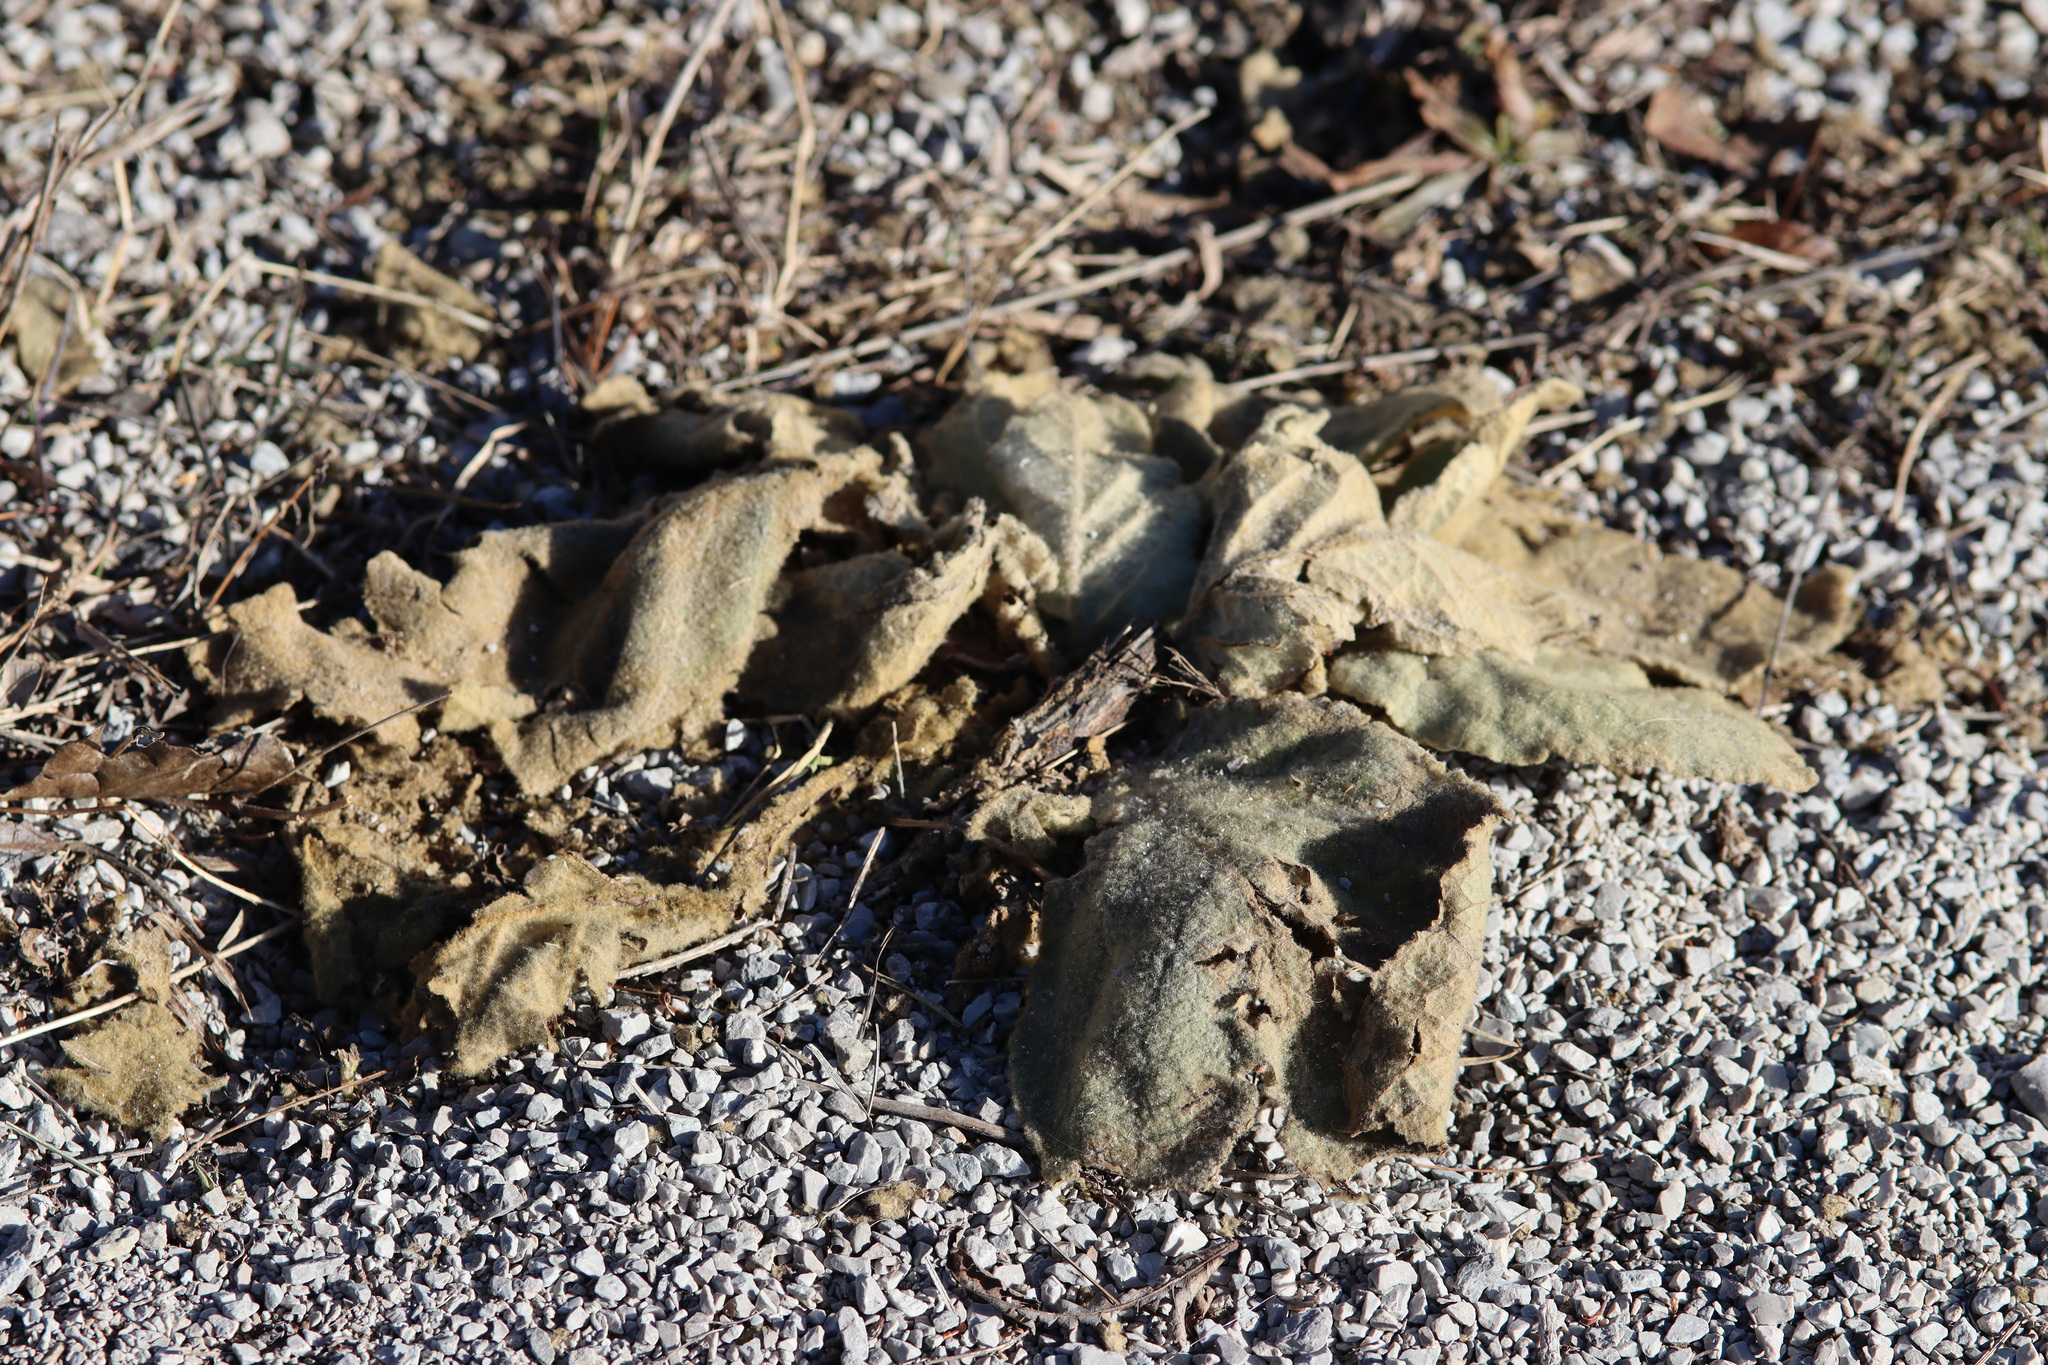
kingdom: Plantae
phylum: Tracheophyta
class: Magnoliopsida
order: Lamiales
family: Scrophulariaceae
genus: Verbascum
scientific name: Verbascum thapsus
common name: Common mullein
